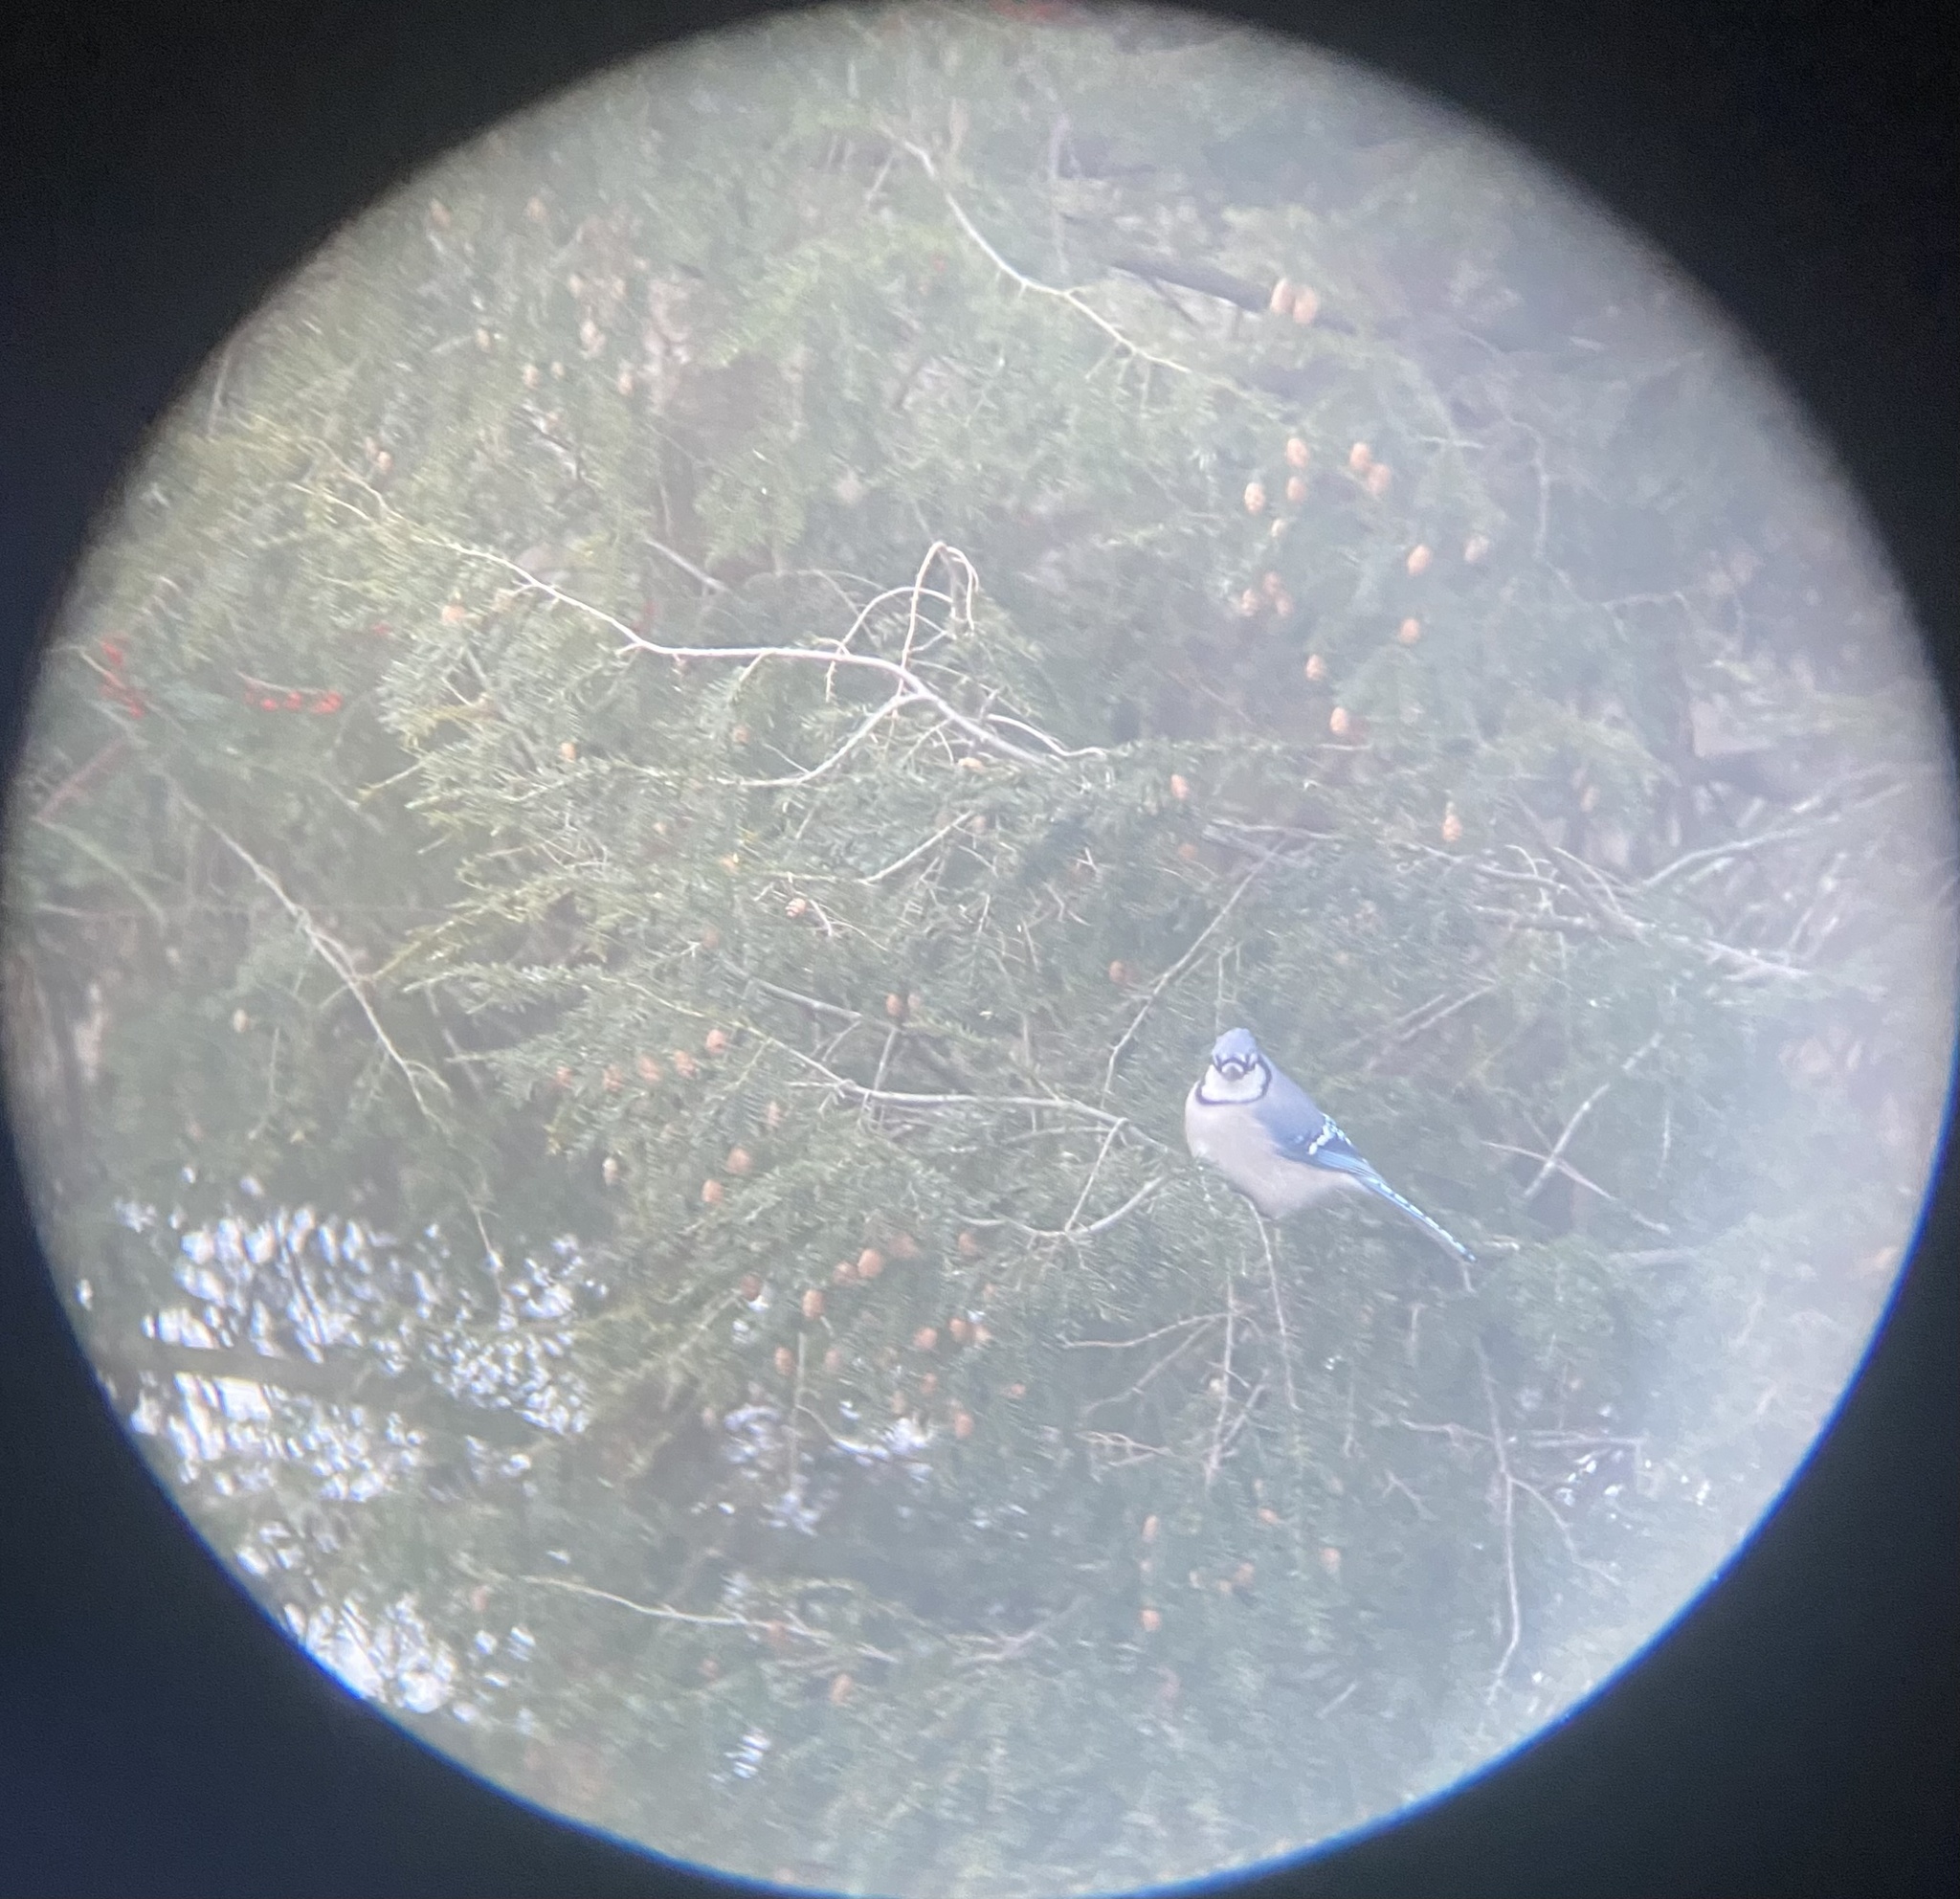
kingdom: Animalia
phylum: Chordata
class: Aves
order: Passeriformes
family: Corvidae
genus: Cyanocitta
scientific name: Cyanocitta cristata
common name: Blue jay
